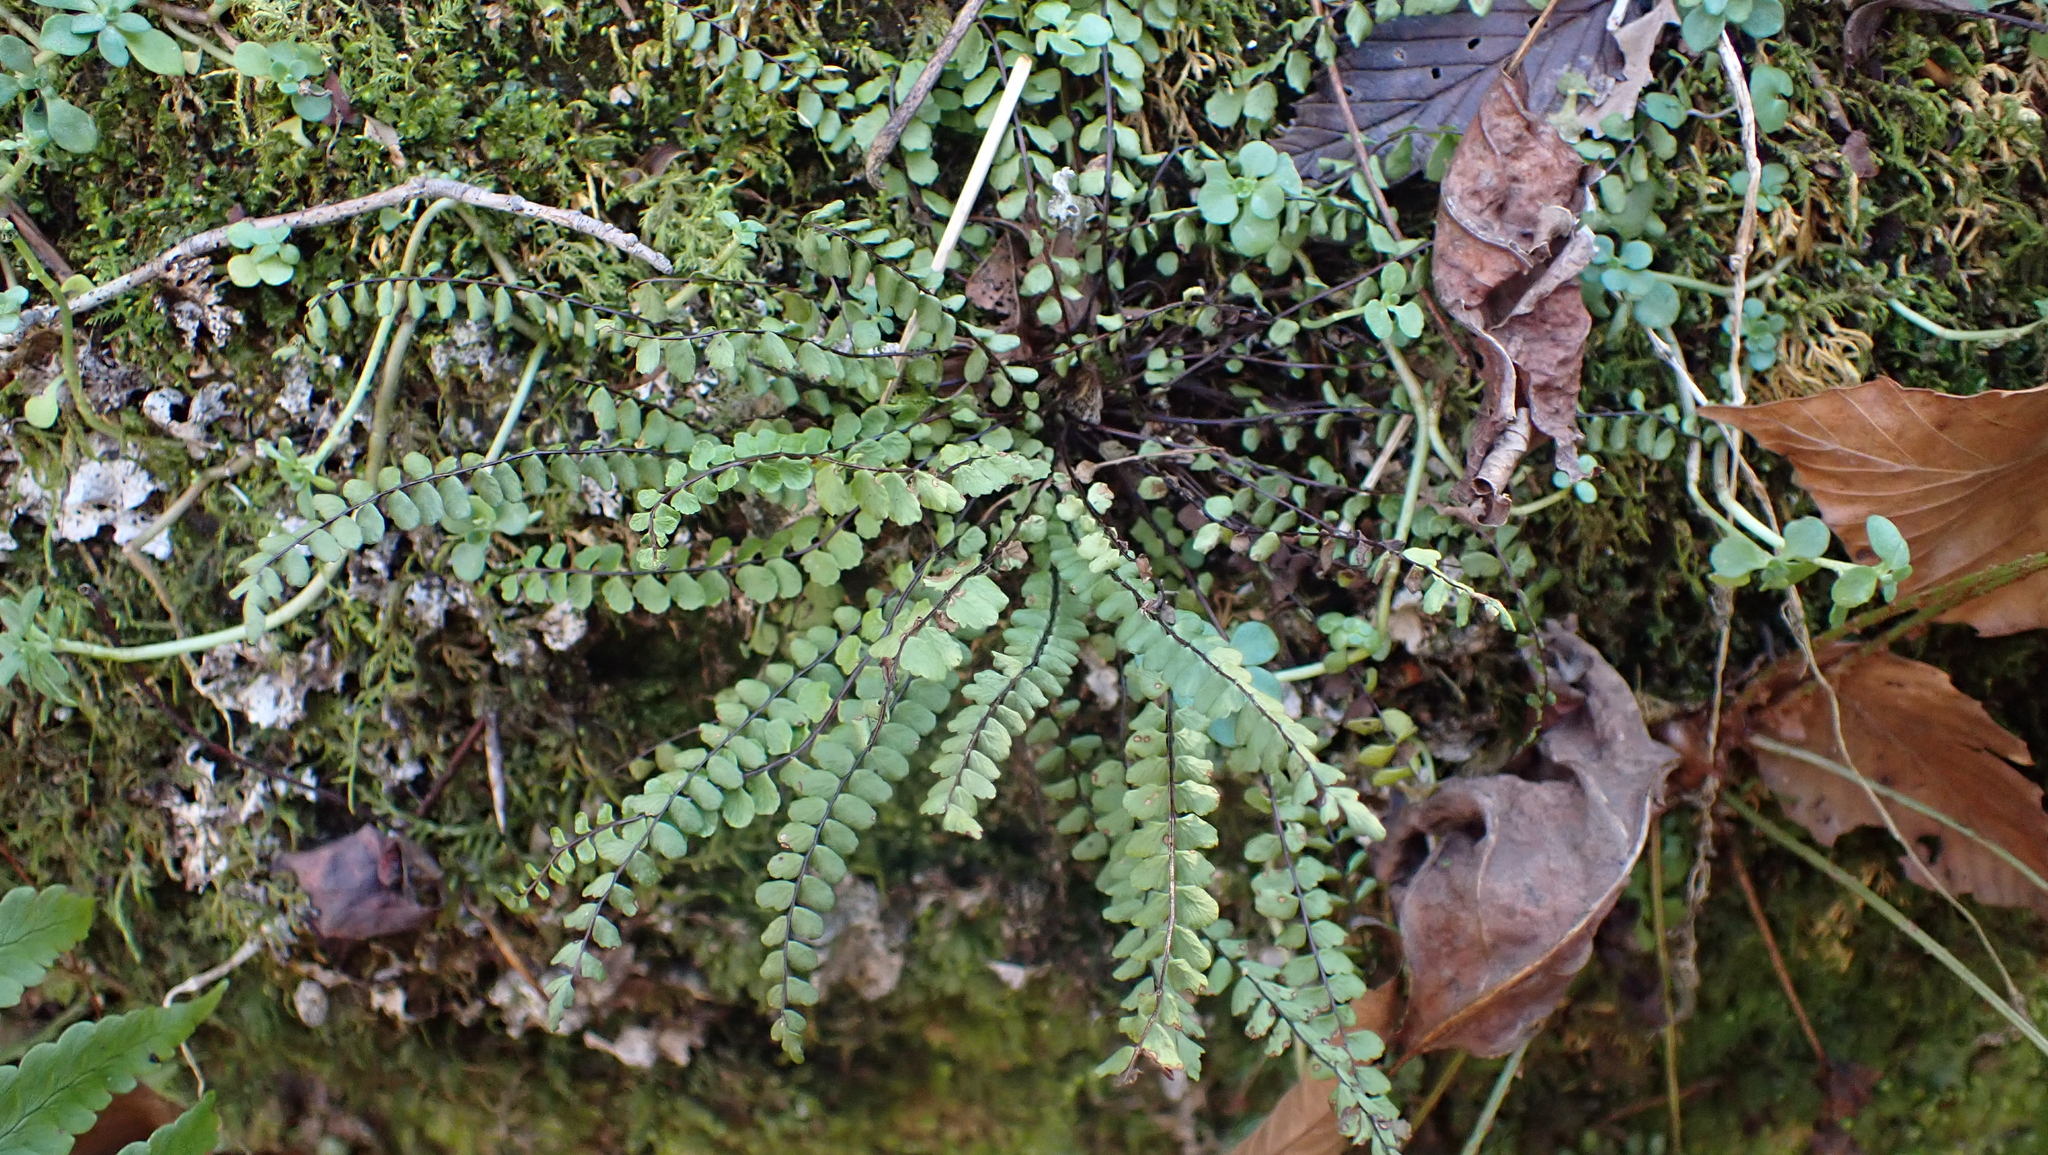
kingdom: Plantae
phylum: Tracheophyta
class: Polypodiopsida
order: Polypodiales
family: Aspleniaceae
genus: Asplenium
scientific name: Asplenium trichomanes
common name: Maidenhair spleenwort
